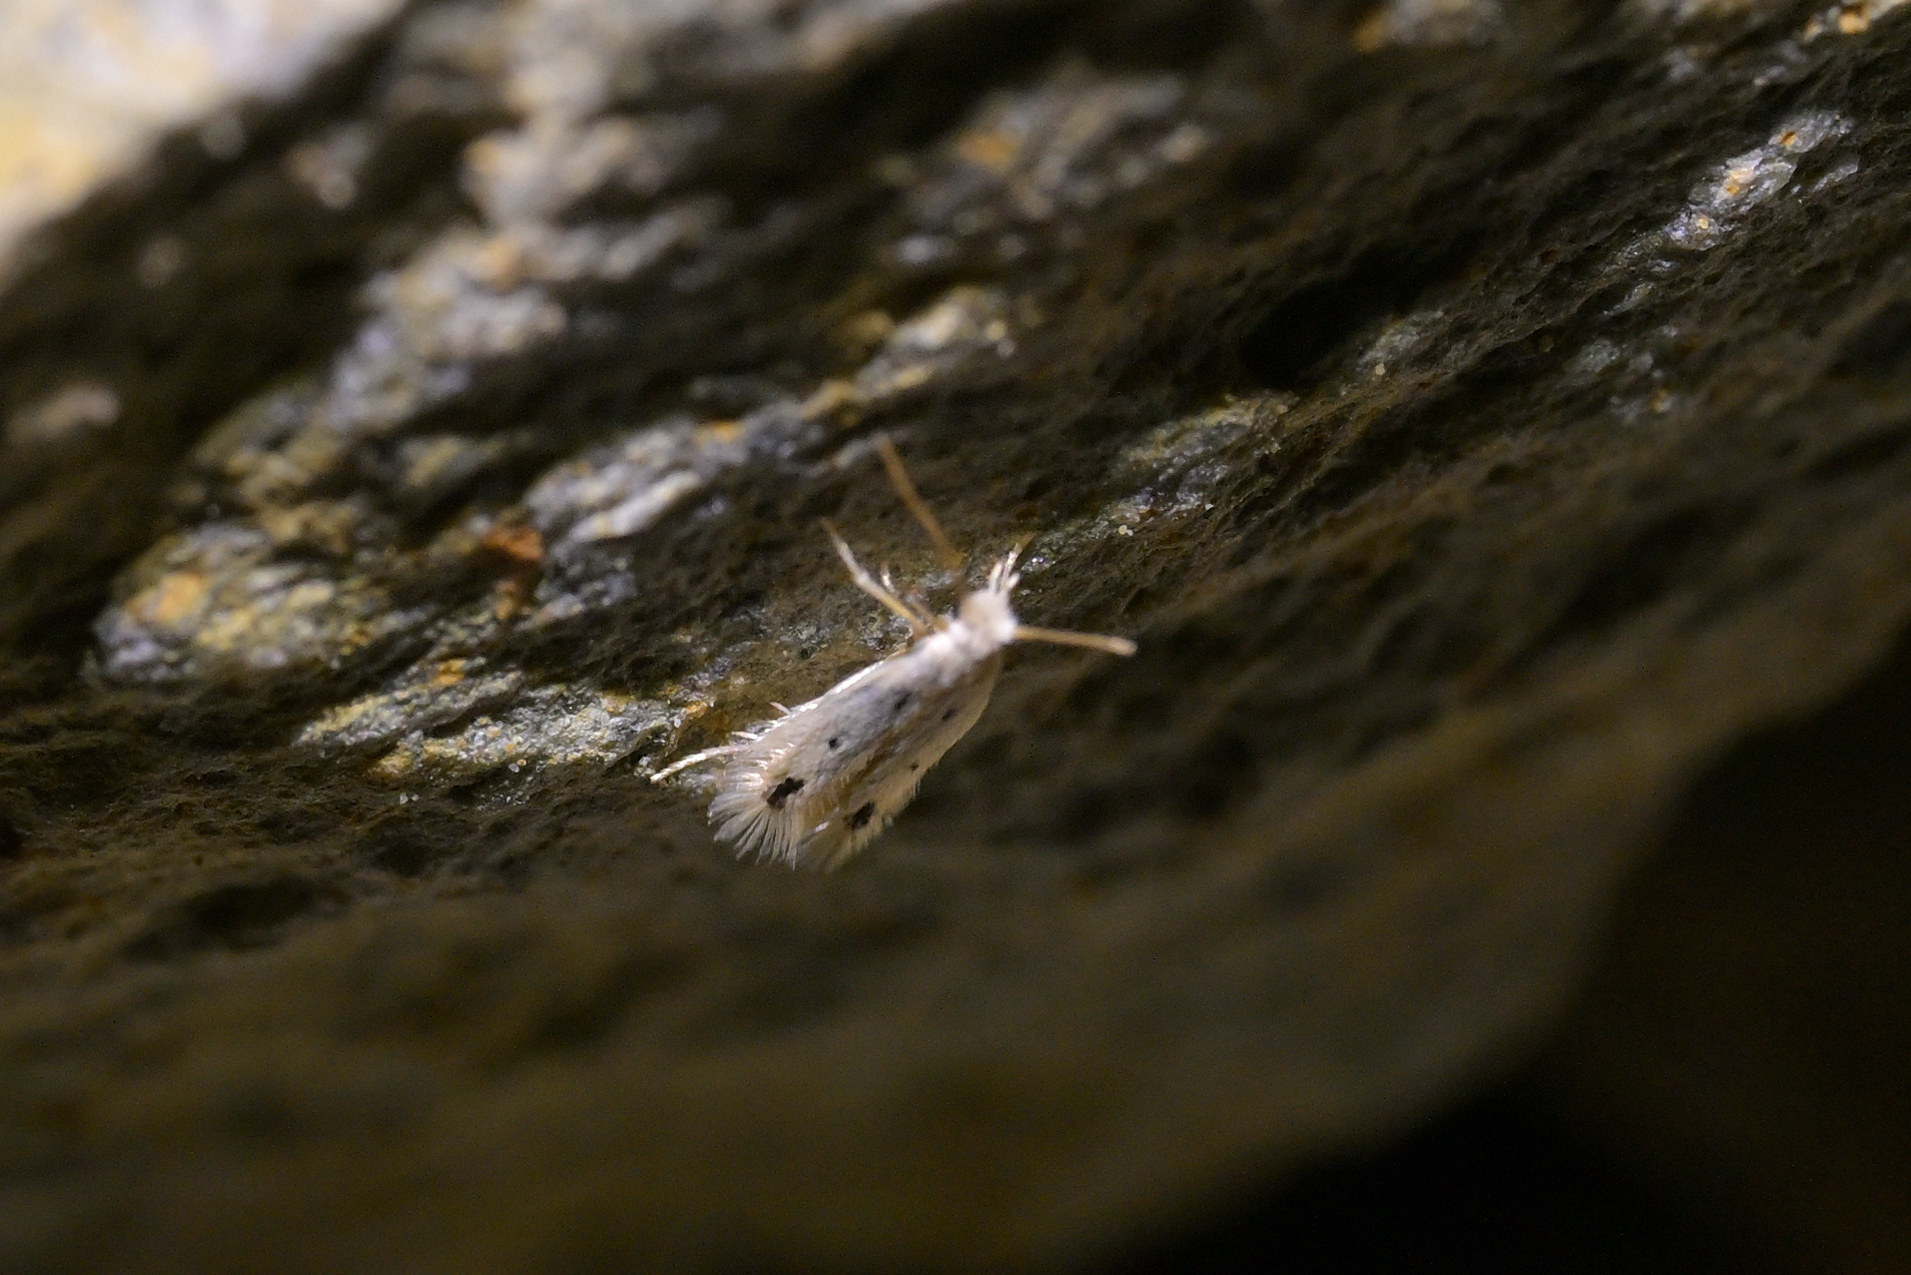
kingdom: Animalia
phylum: Arthropoda
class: Insecta
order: Lepidoptera
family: Nepticulidae
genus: Stigmella
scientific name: Stigmella oriastra
